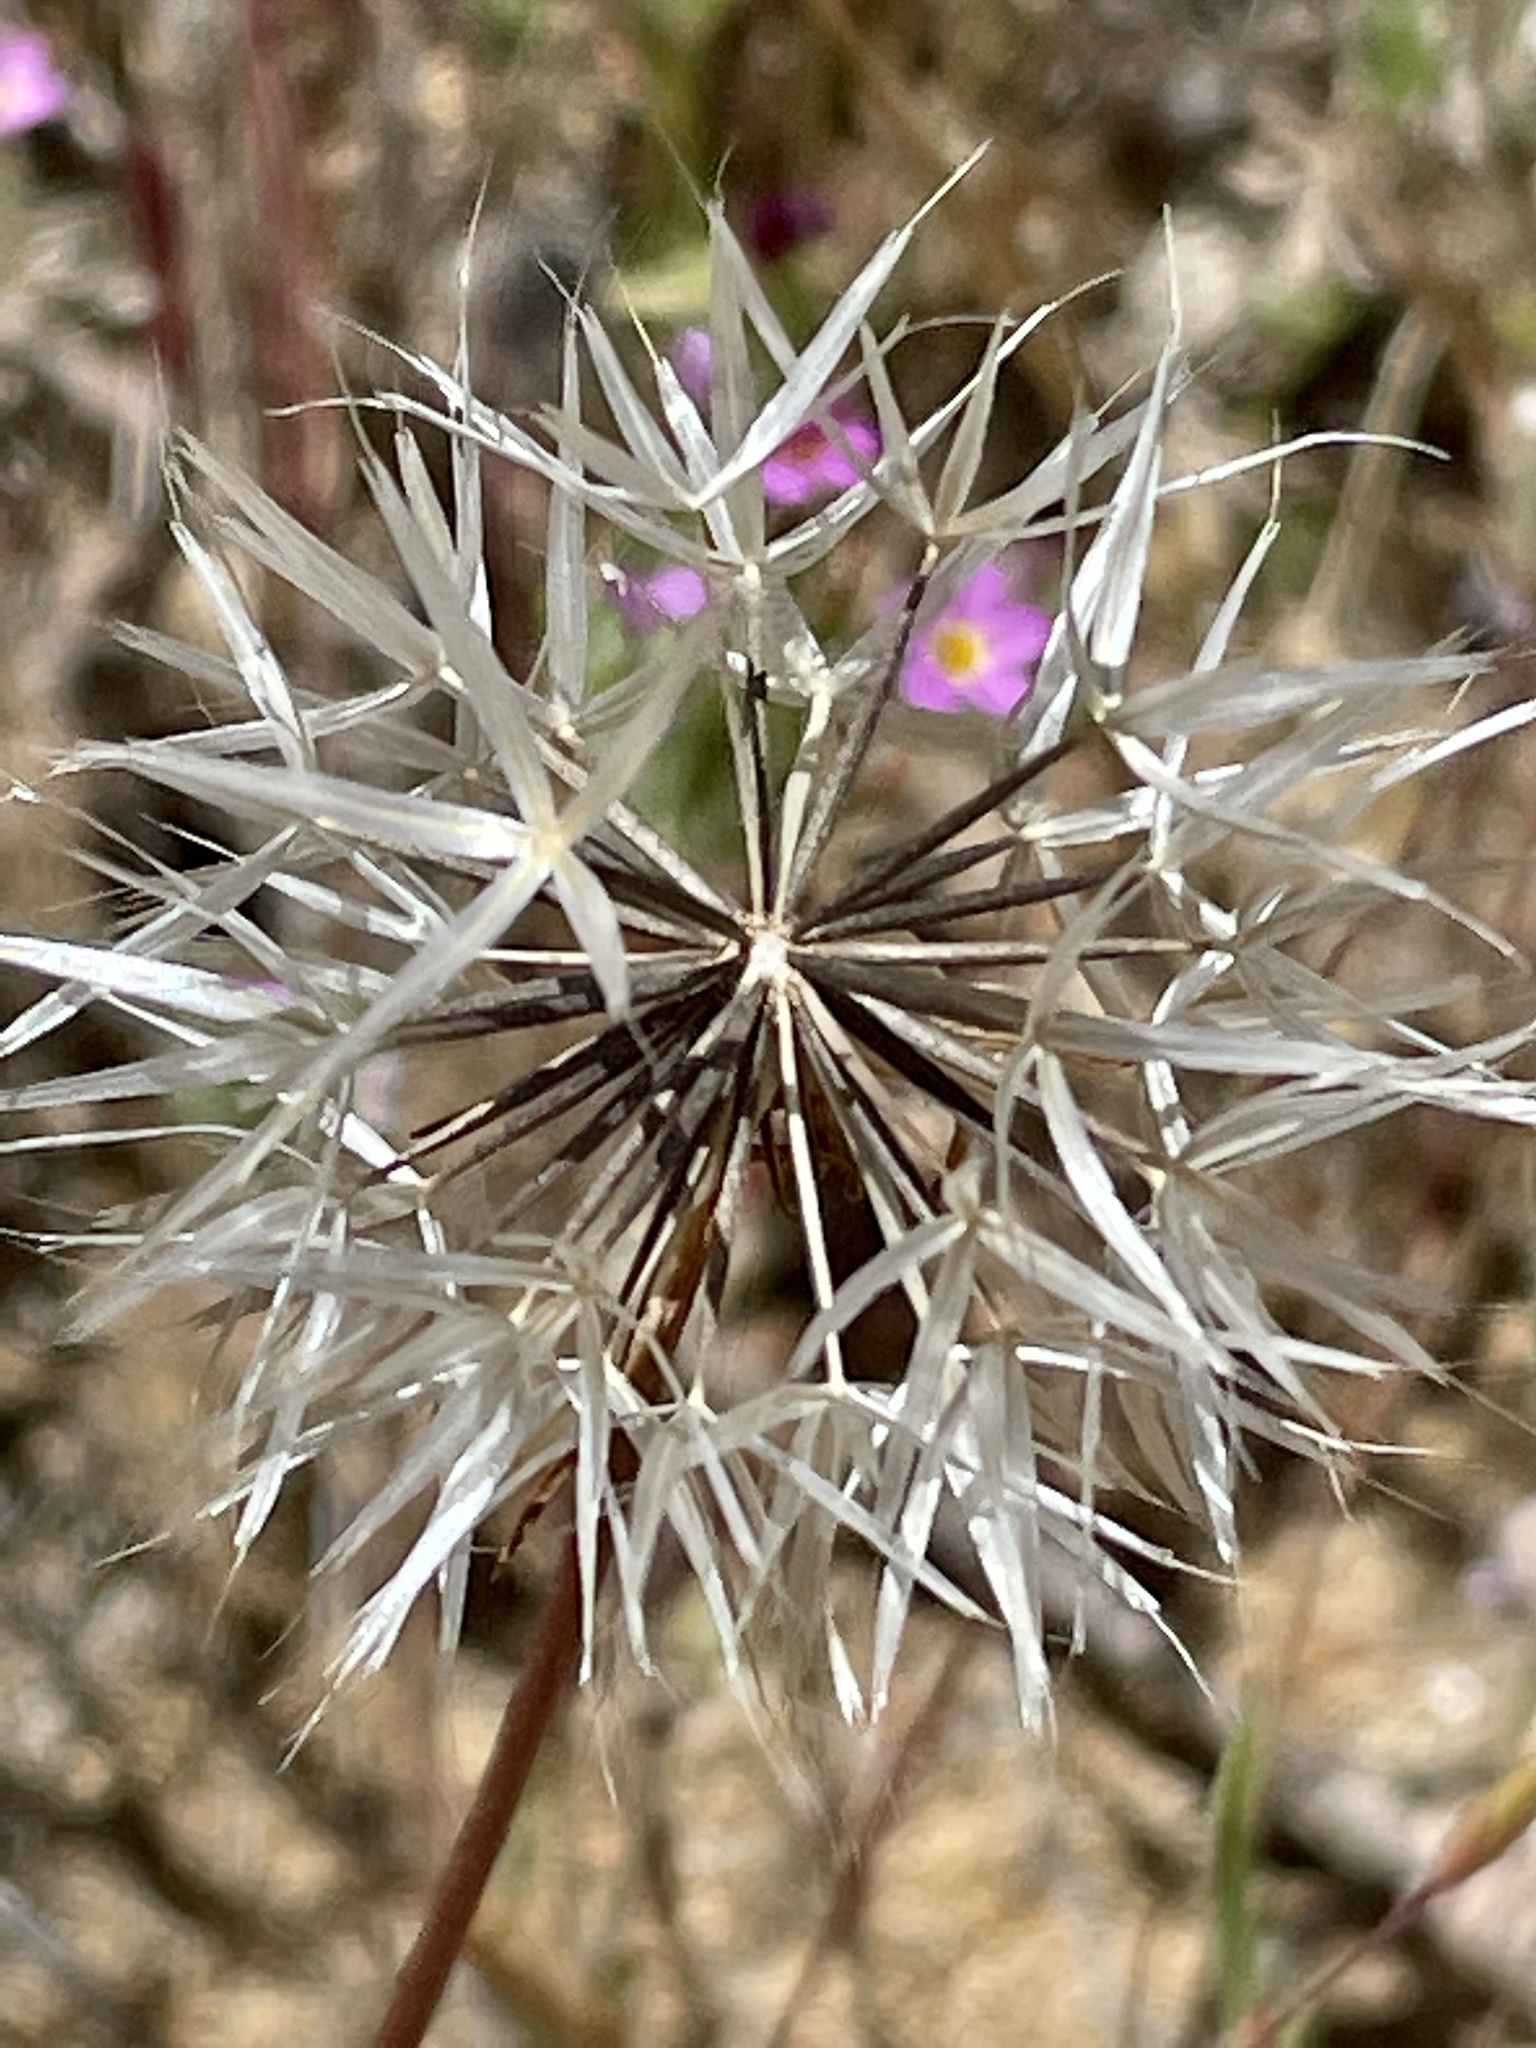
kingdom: Plantae
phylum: Tracheophyta
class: Magnoliopsida
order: Asterales
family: Asteraceae
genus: Microseris
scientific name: Microseris lindleyi
